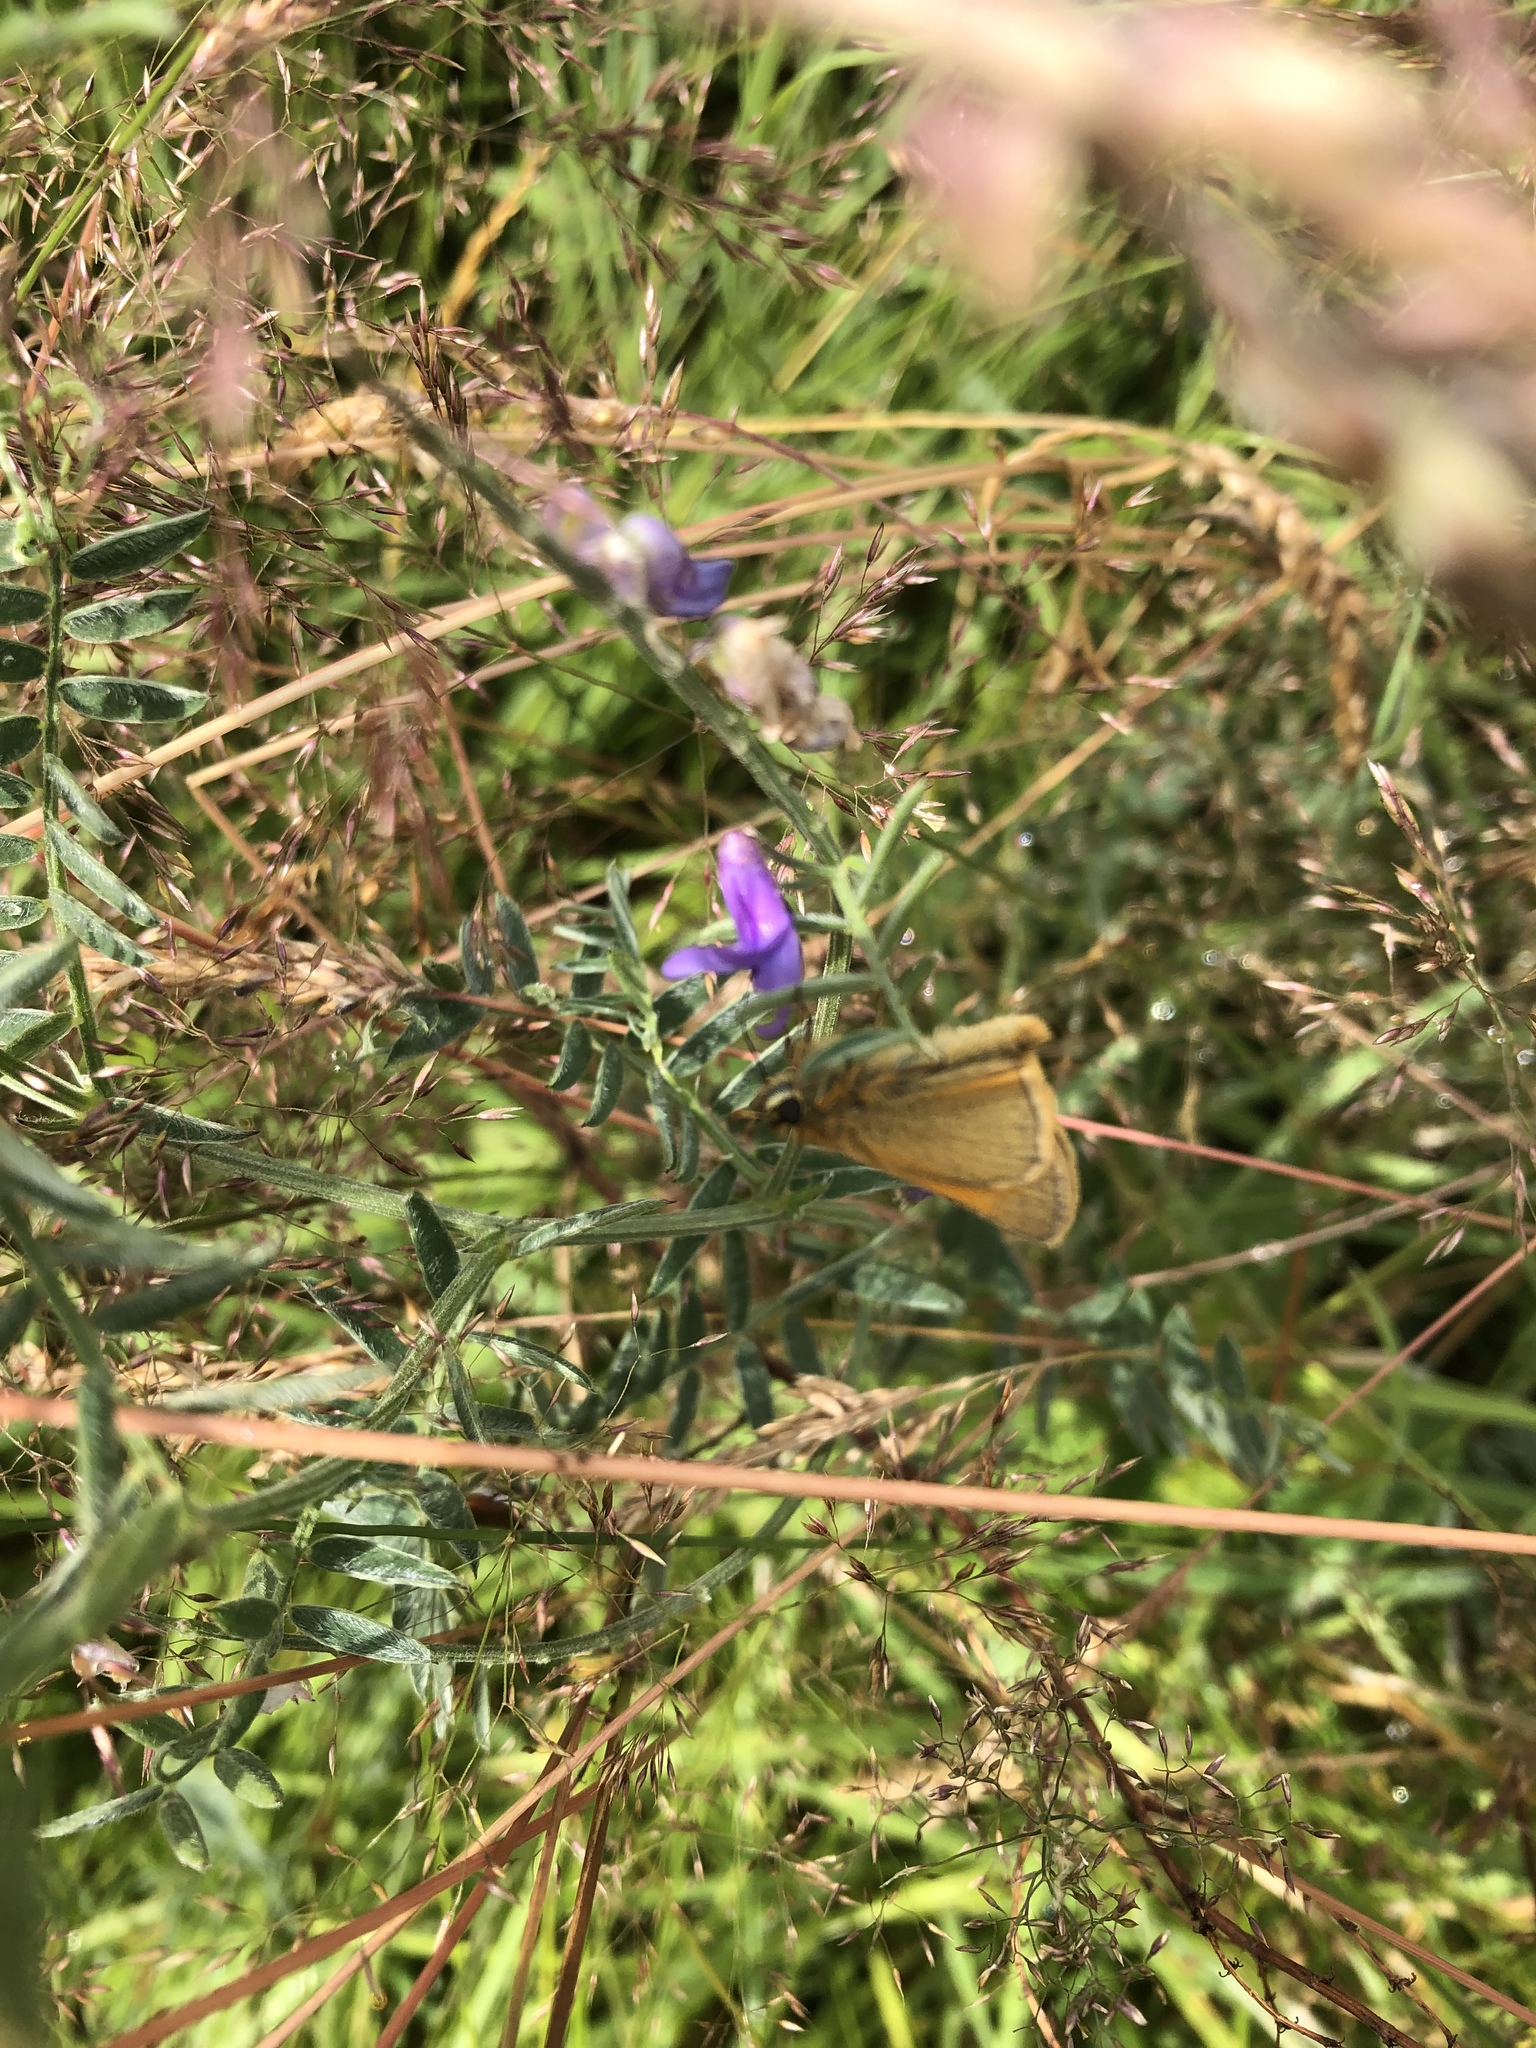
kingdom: Animalia
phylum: Arthropoda
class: Insecta
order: Lepidoptera
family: Hesperiidae
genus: Thymelicus
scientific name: Thymelicus sylvestris
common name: Small skipper
